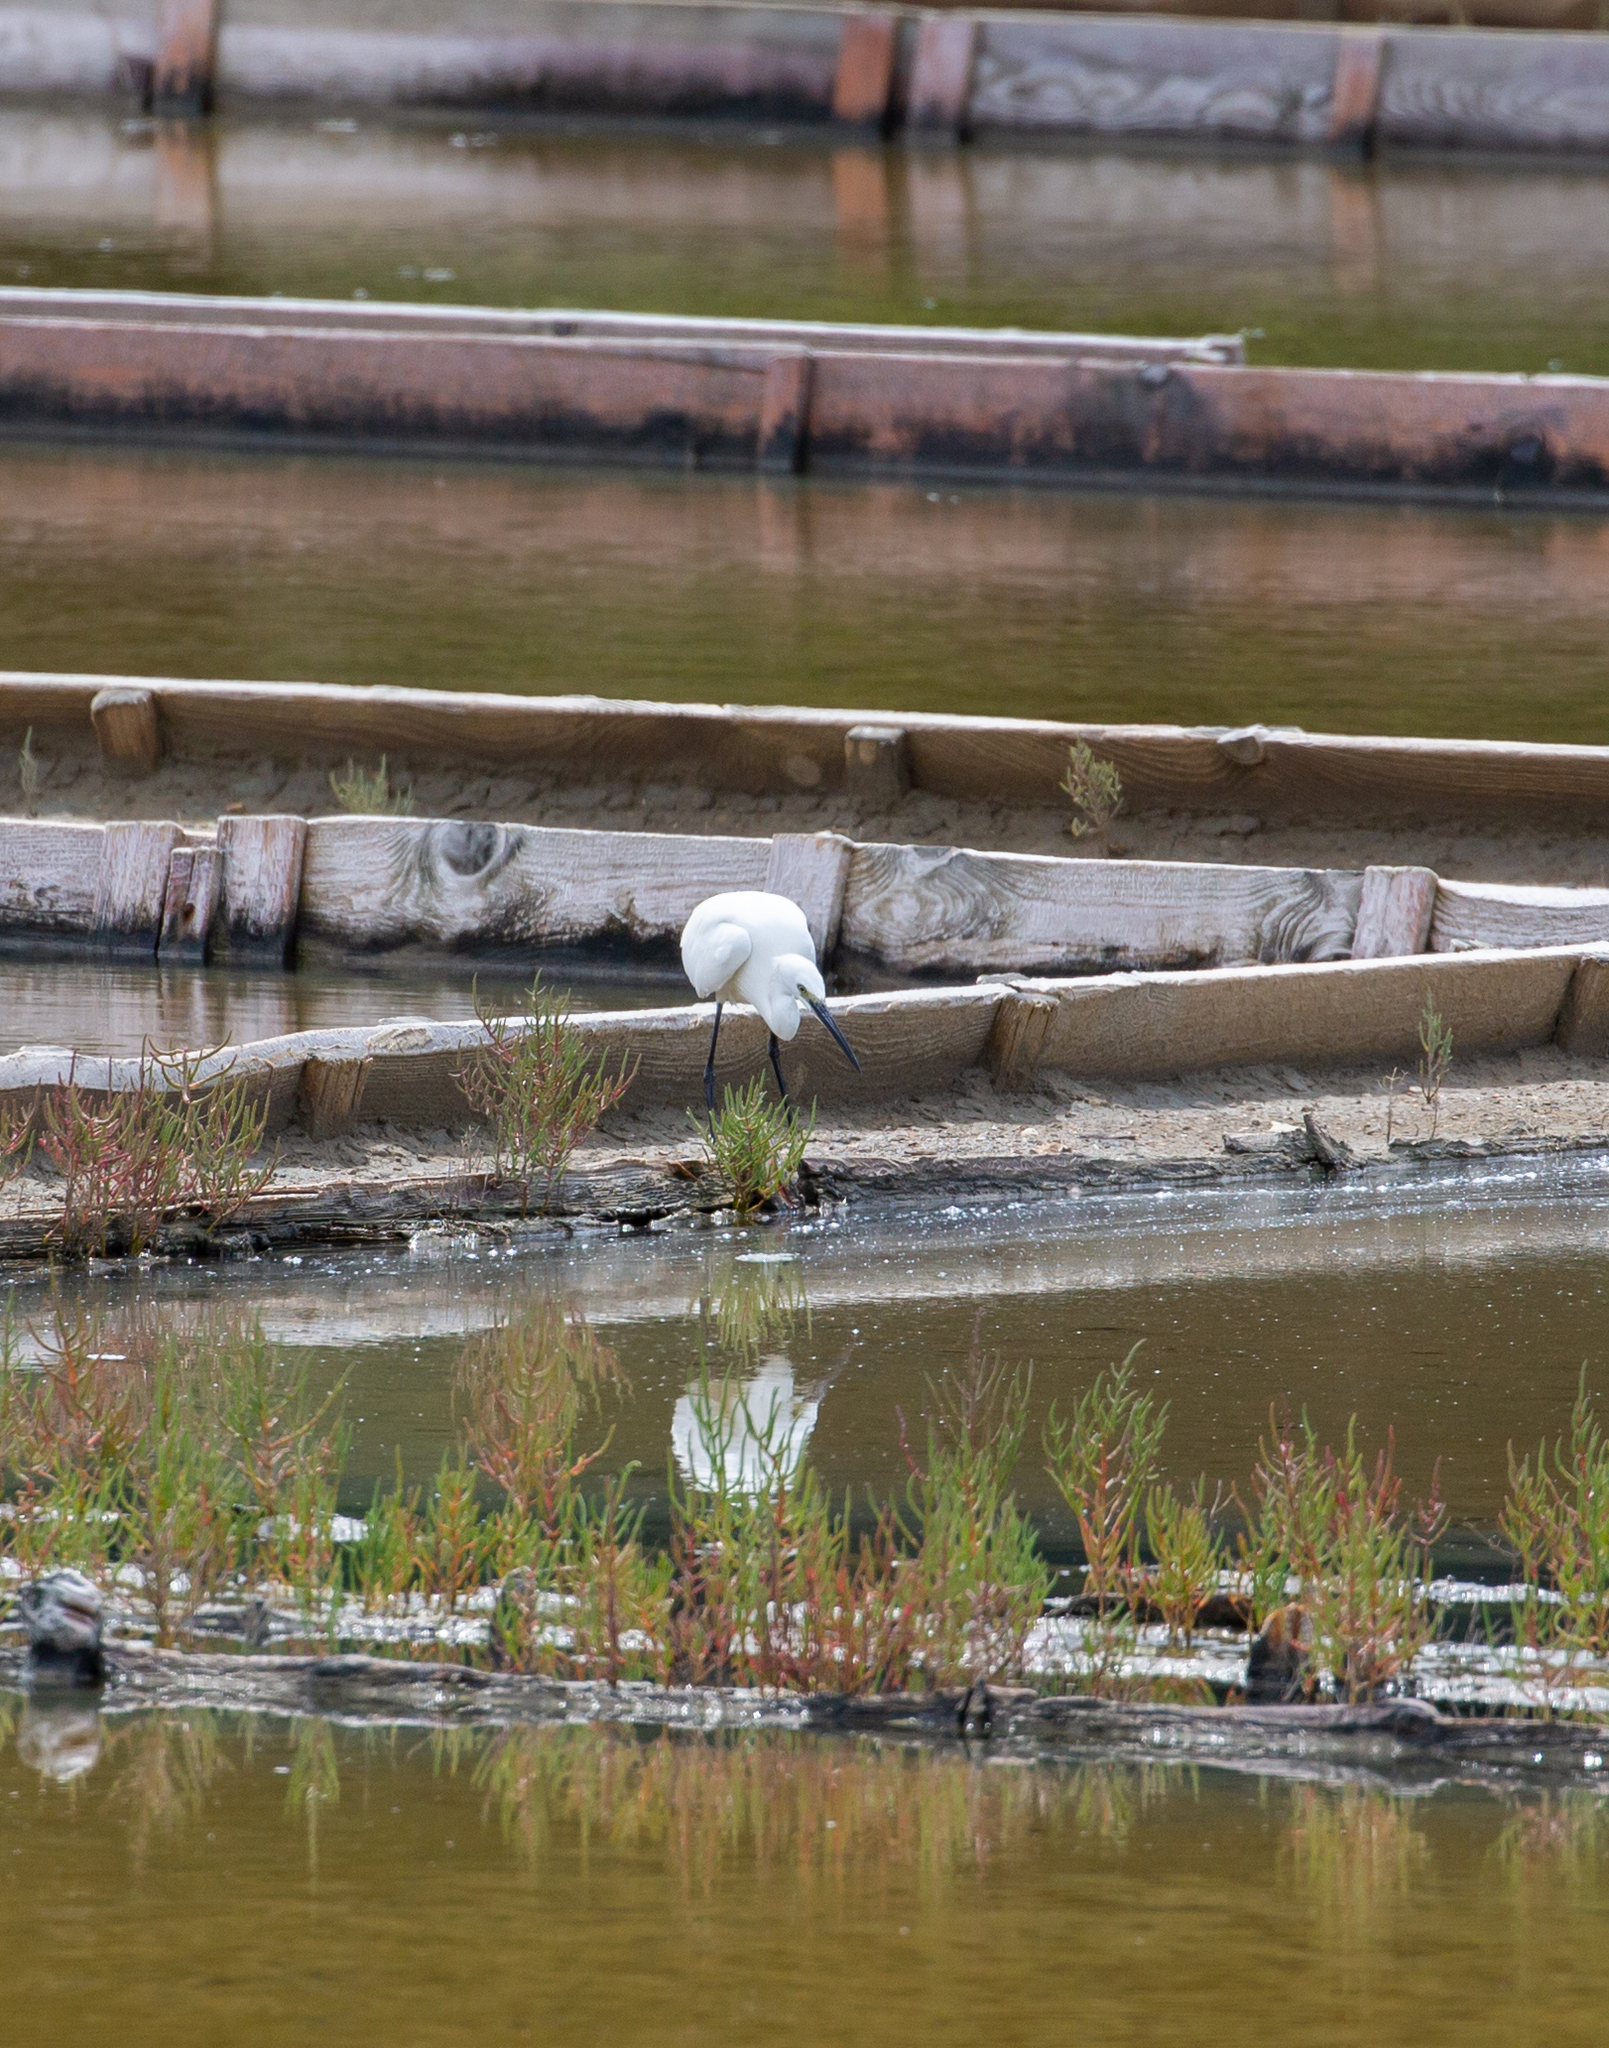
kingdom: Animalia
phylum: Chordata
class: Aves
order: Pelecaniformes
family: Ardeidae
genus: Egretta
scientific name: Egretta garzetta
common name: Little egret
